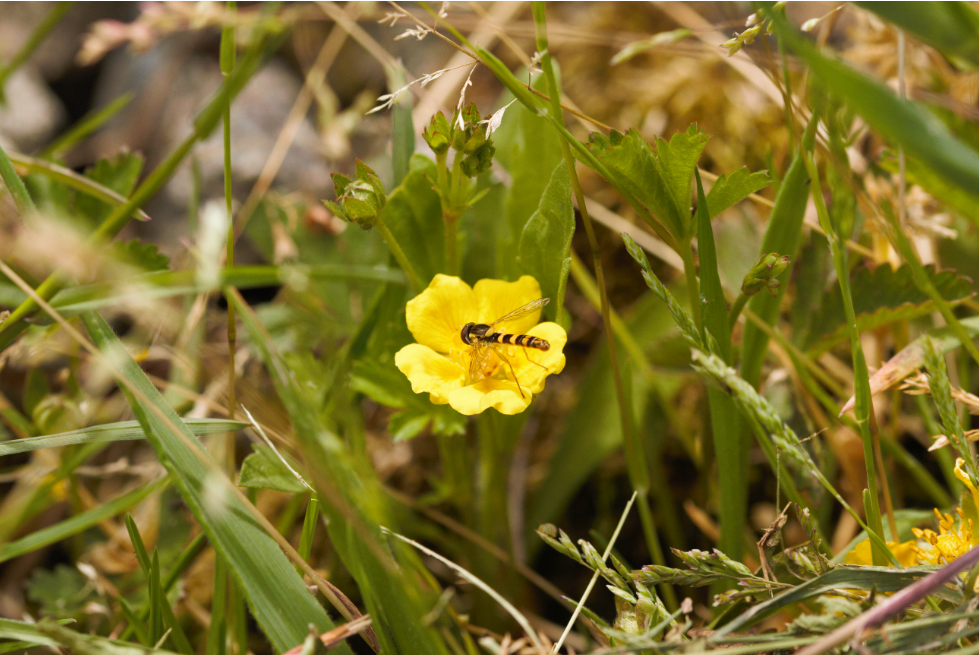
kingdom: Animalia
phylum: Arthropoda
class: Insecta
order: Diptera
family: Syrphidae
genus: Sphaerophoria
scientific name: Sphaerophoria
